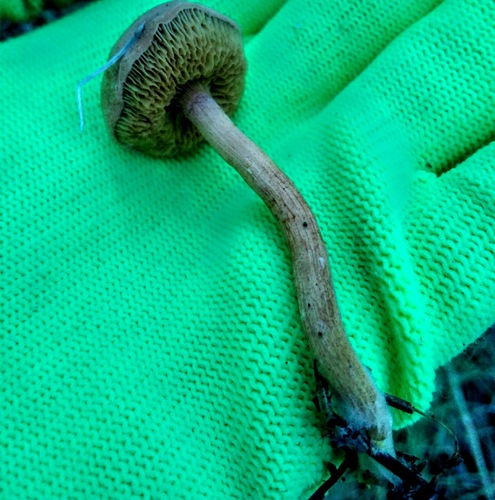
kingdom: Fungi
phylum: Basidiomycota
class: Agaricomycetes
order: Boletales
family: Boletaceae
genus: Chalciporus
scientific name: Chalciporus piperatus
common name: Peppery bolete
